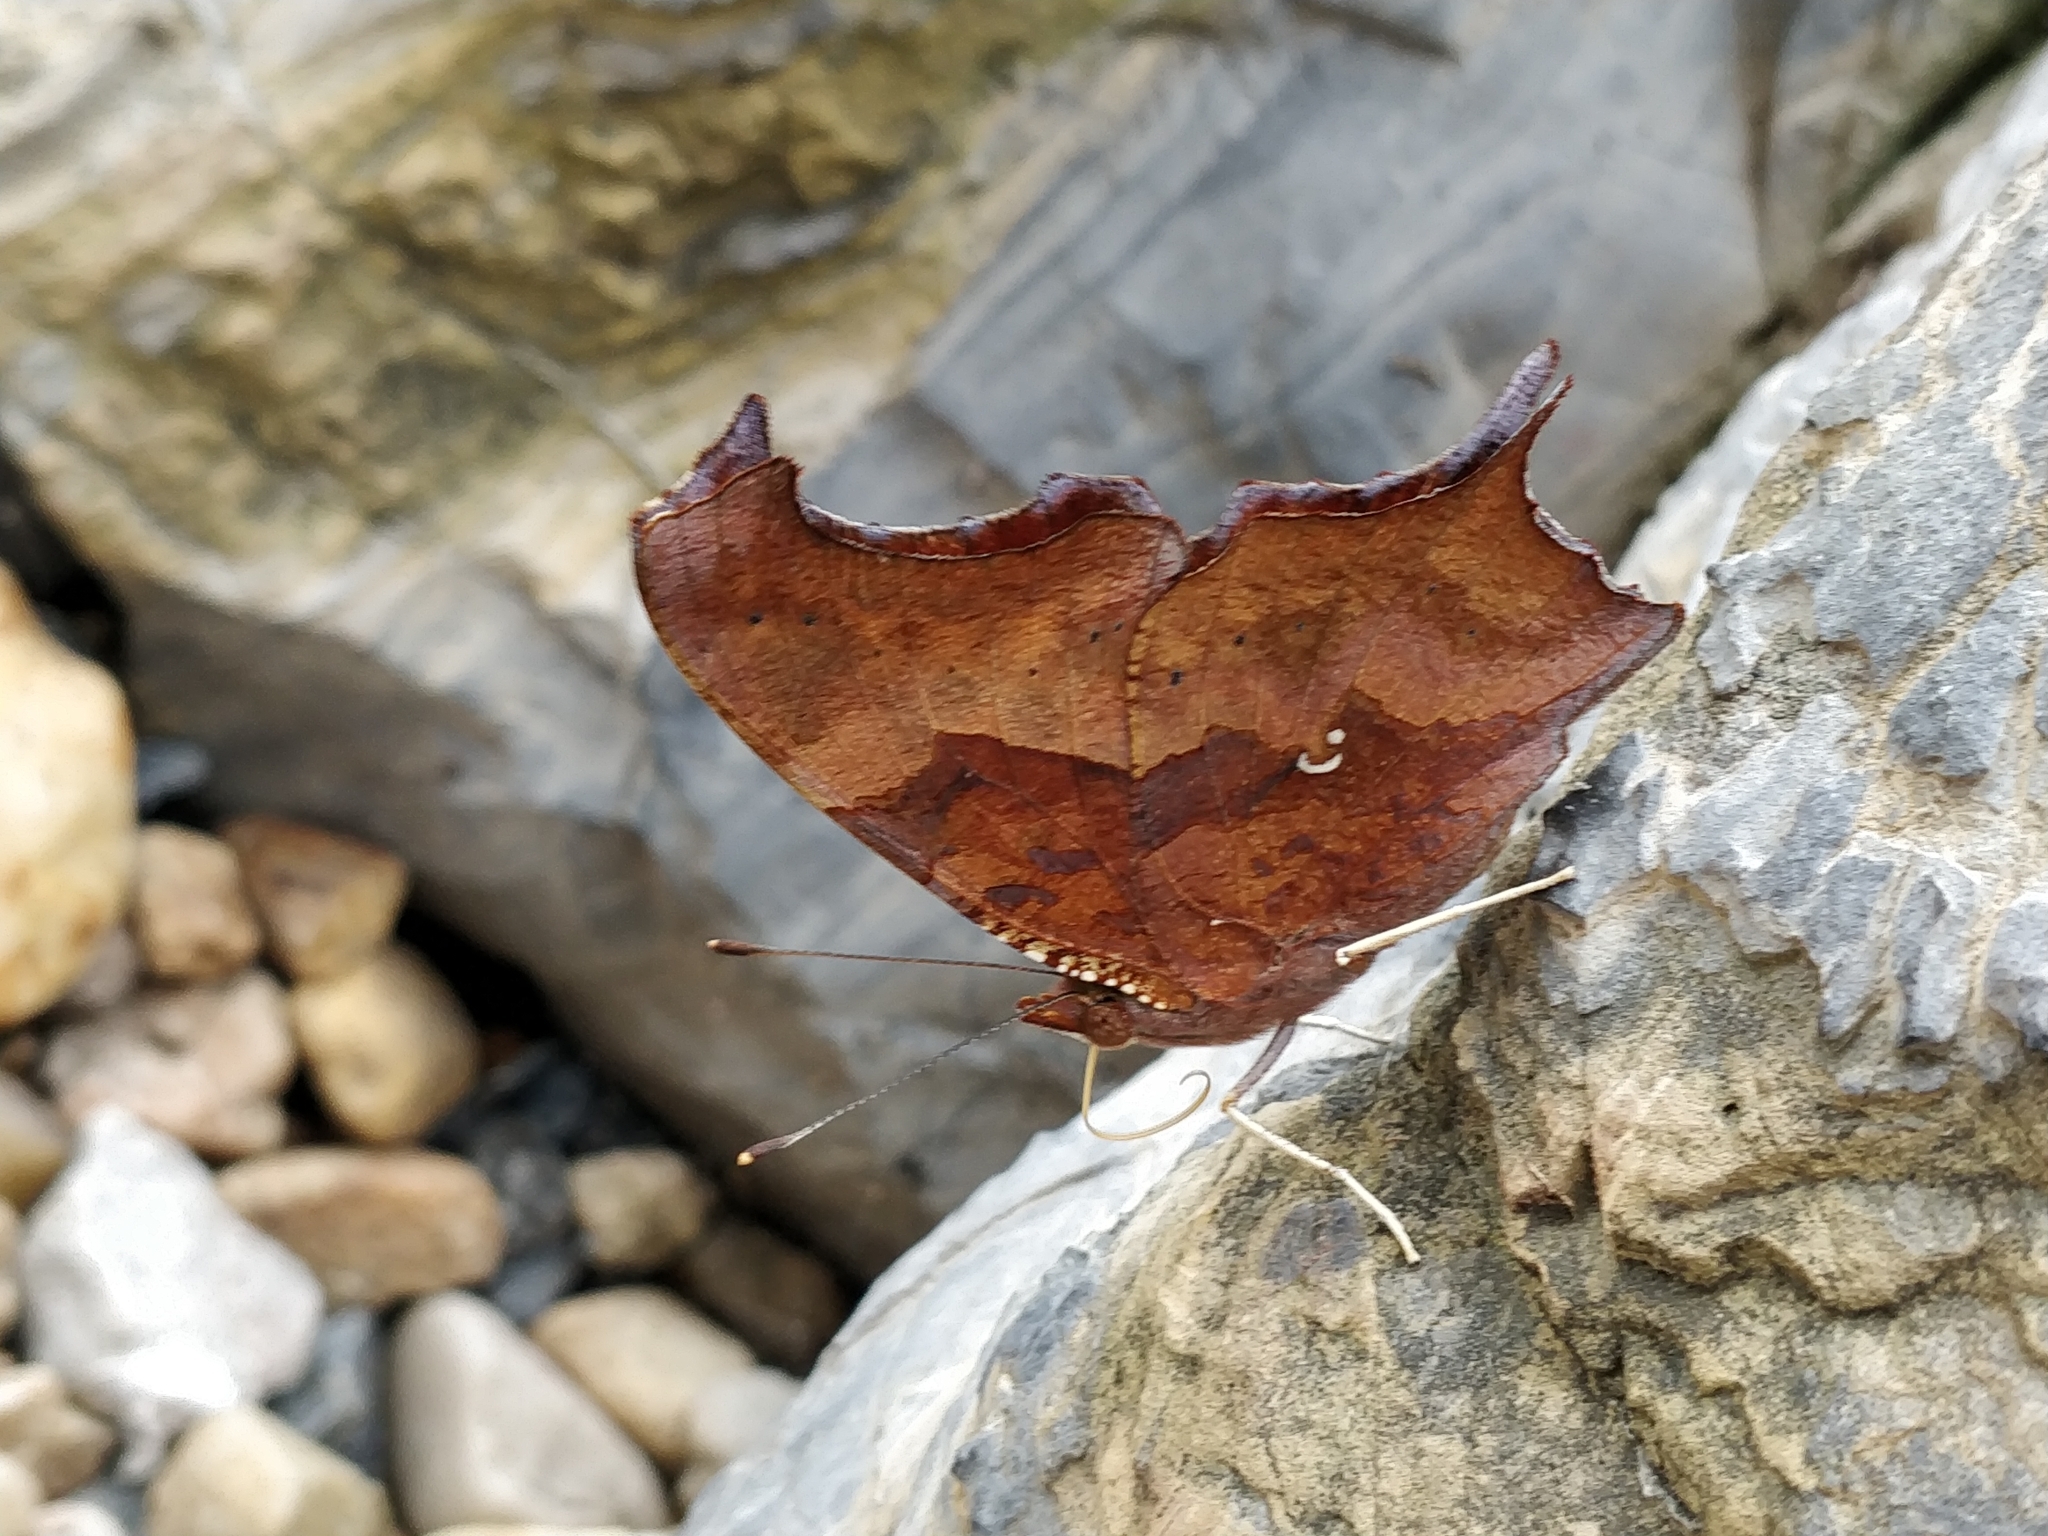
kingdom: Animalia
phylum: Arthropoda
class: Insecta
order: Lepidoptera
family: Nymphalidae
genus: Polygonia
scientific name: Polygonia interrogationis
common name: Question mark
